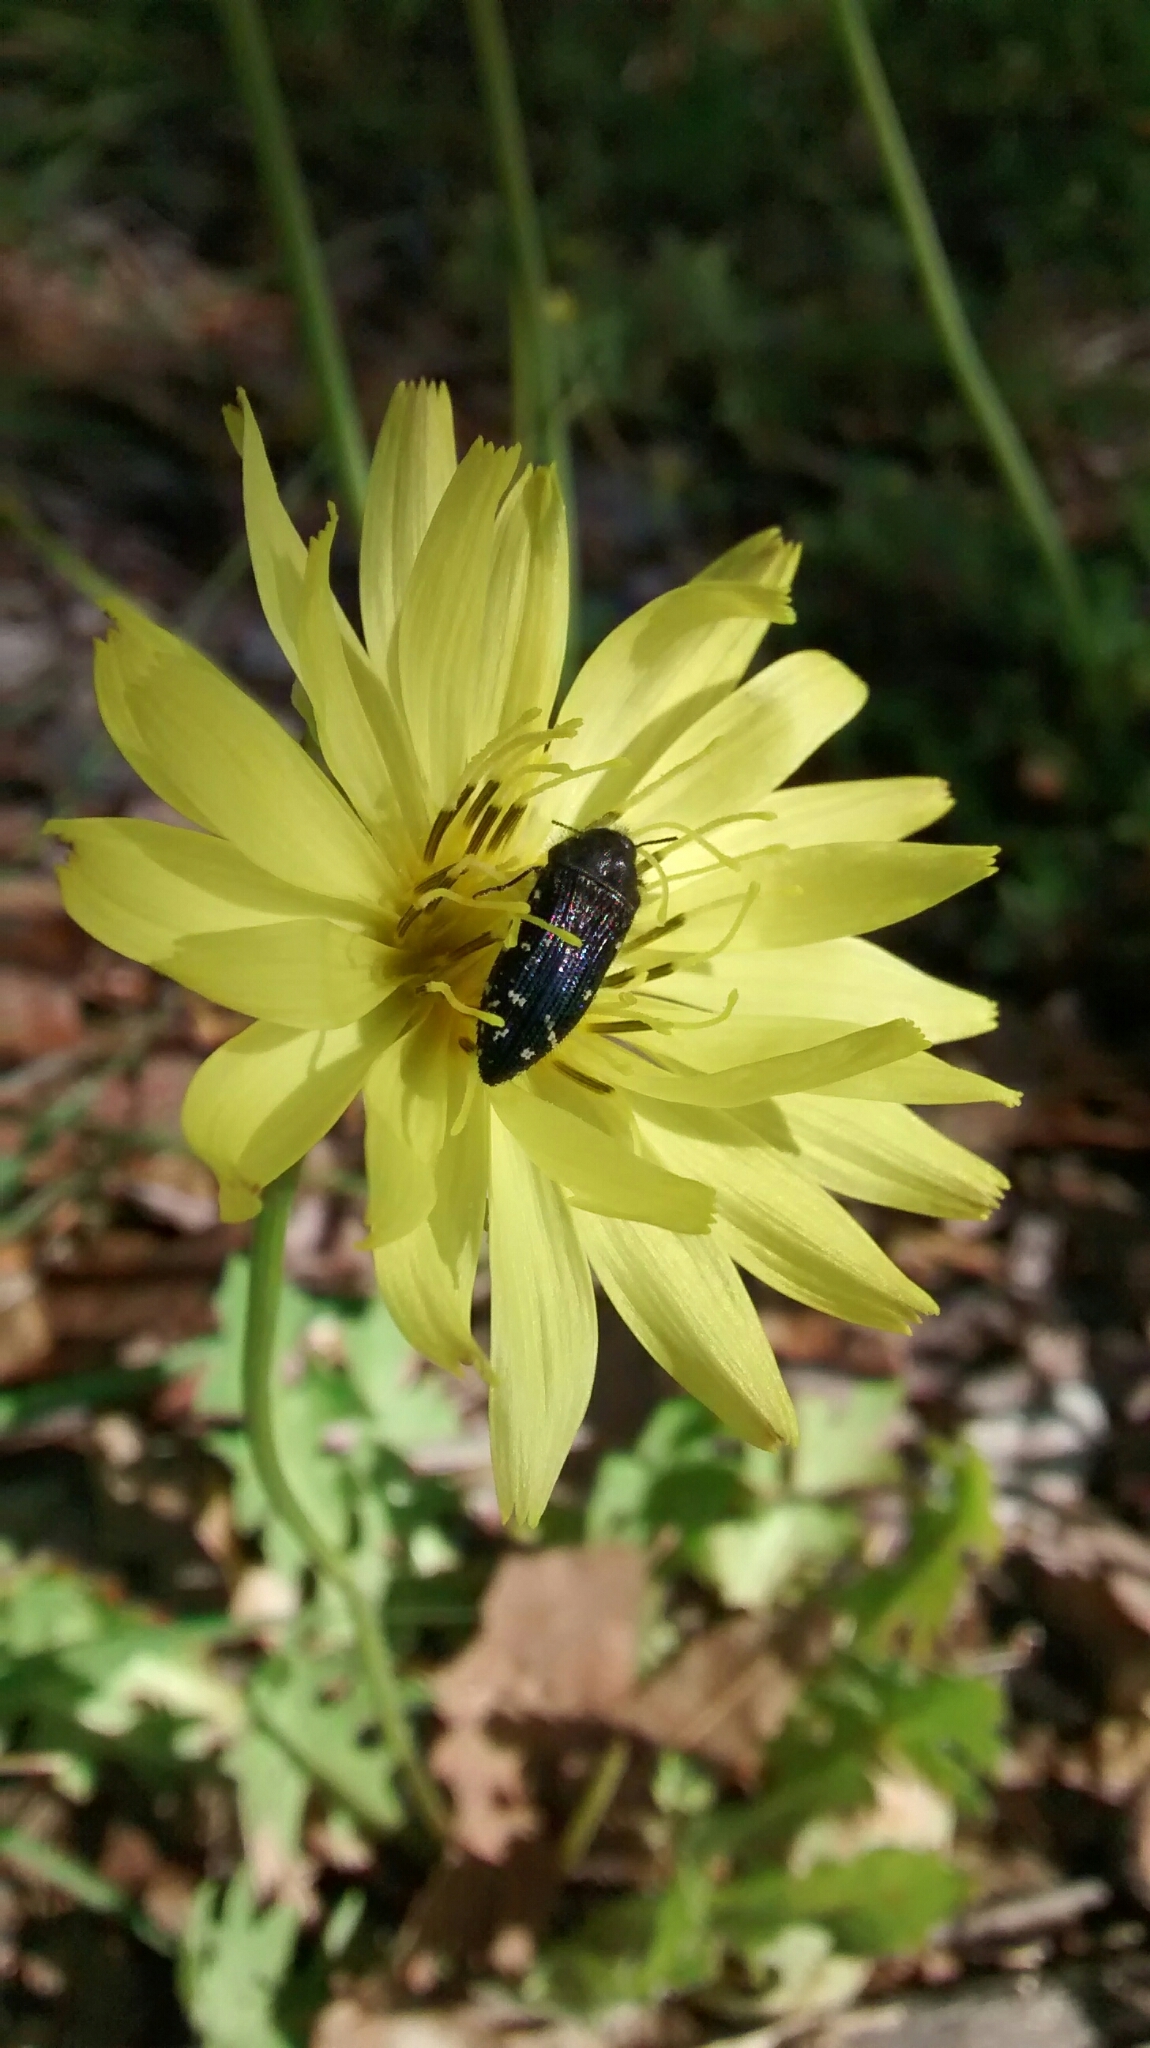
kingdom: Animalia
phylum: Arthropoda
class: Insecta
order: Coleoptera
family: Buprestidae
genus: Acmaeodera
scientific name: Acmaeodera ornatoides
